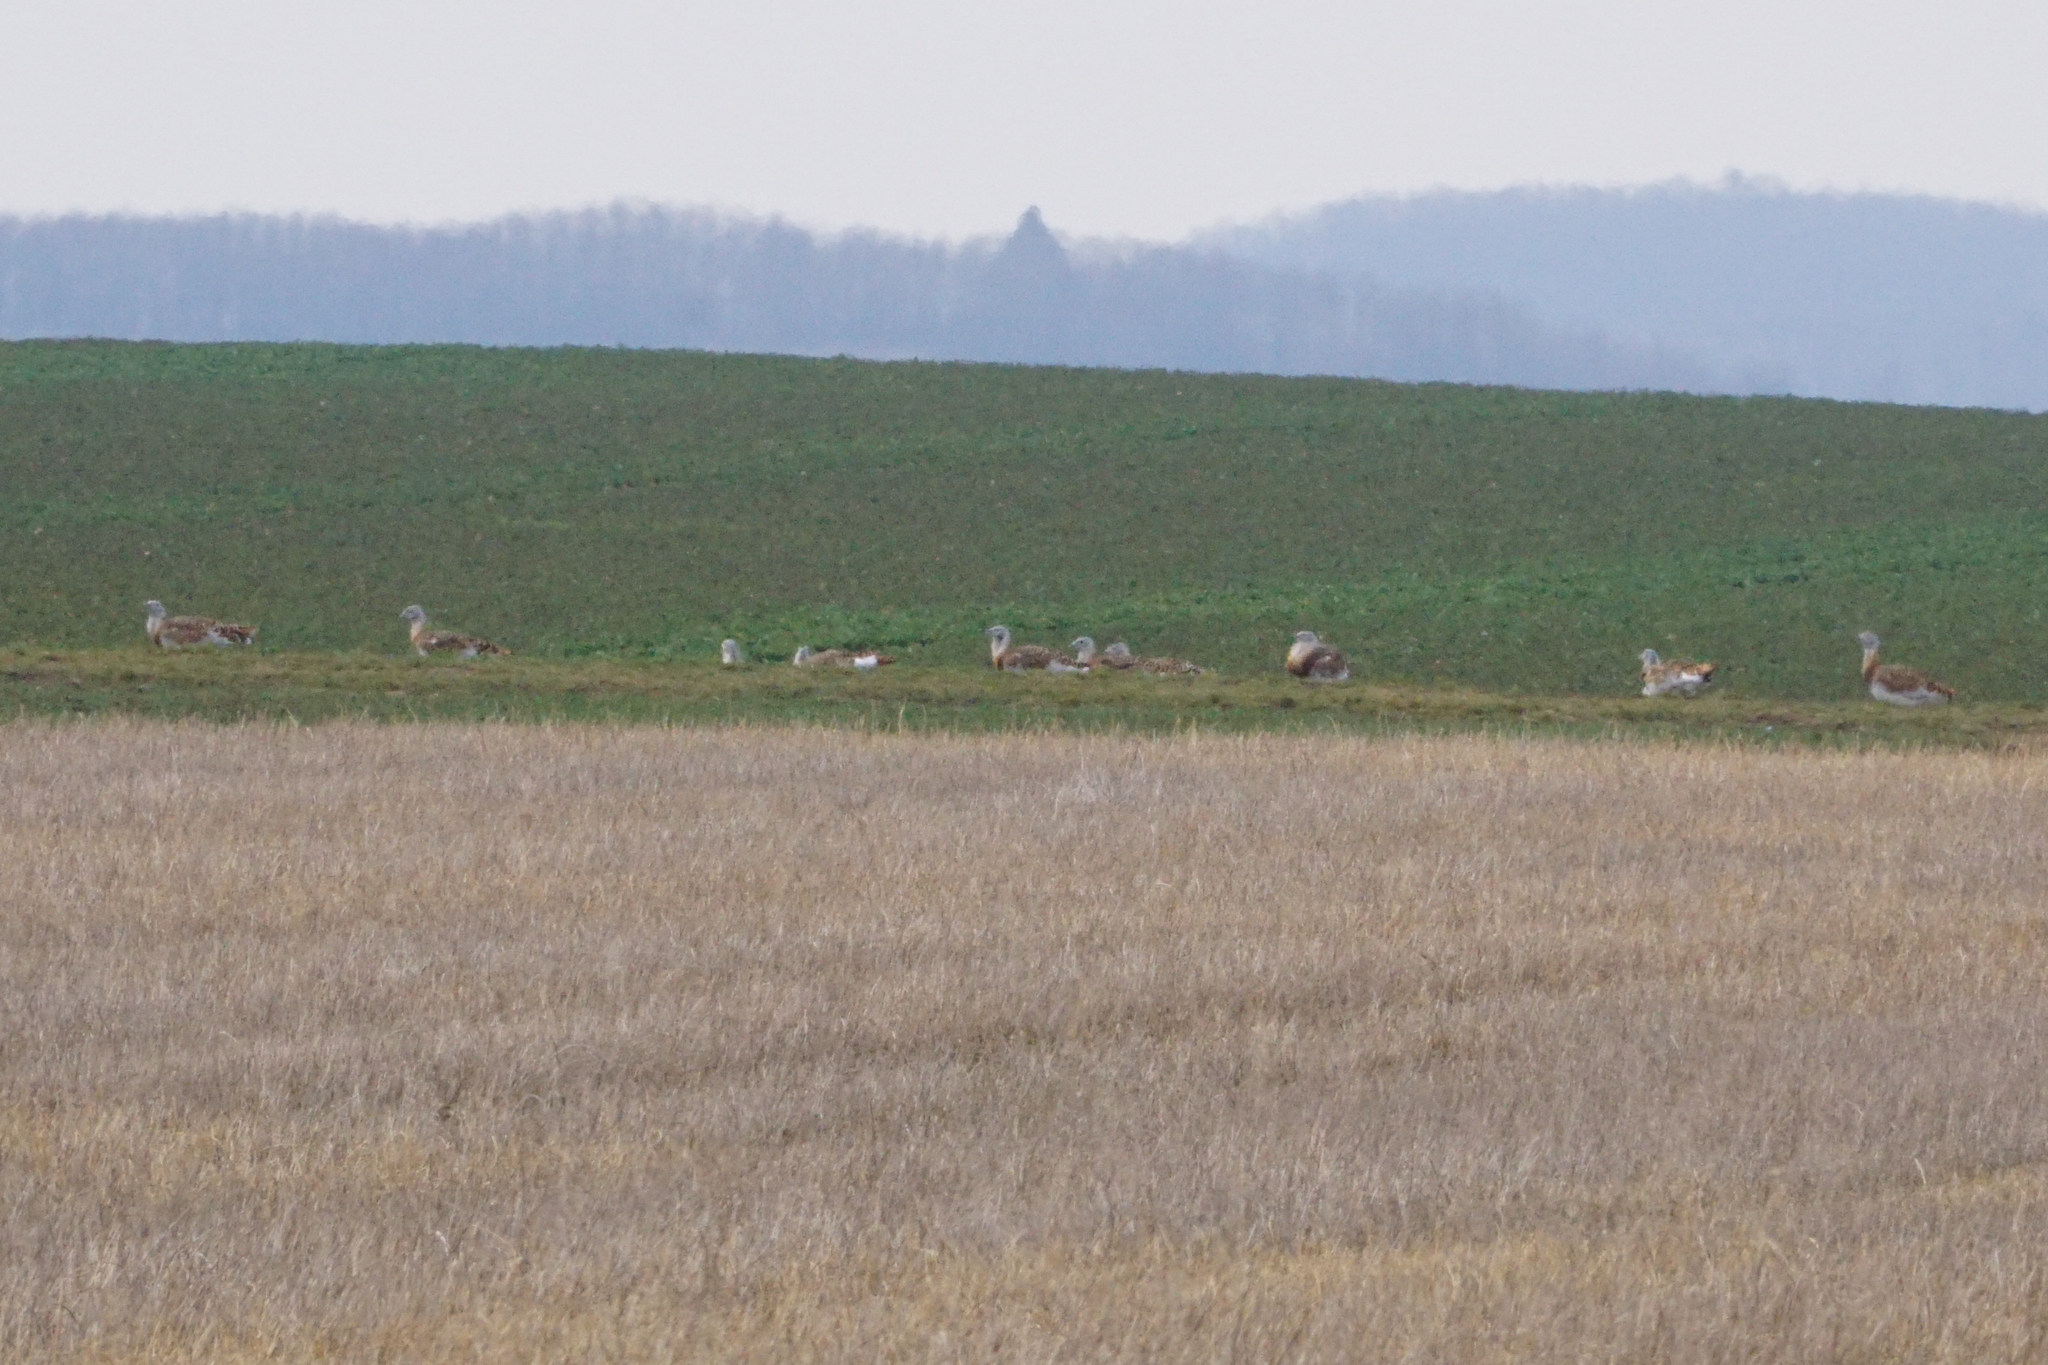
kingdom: Animalia
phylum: Chordata
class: Aves
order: Otidiformes
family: Otididae
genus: Otis
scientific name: Otis tarda
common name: Great bustard
